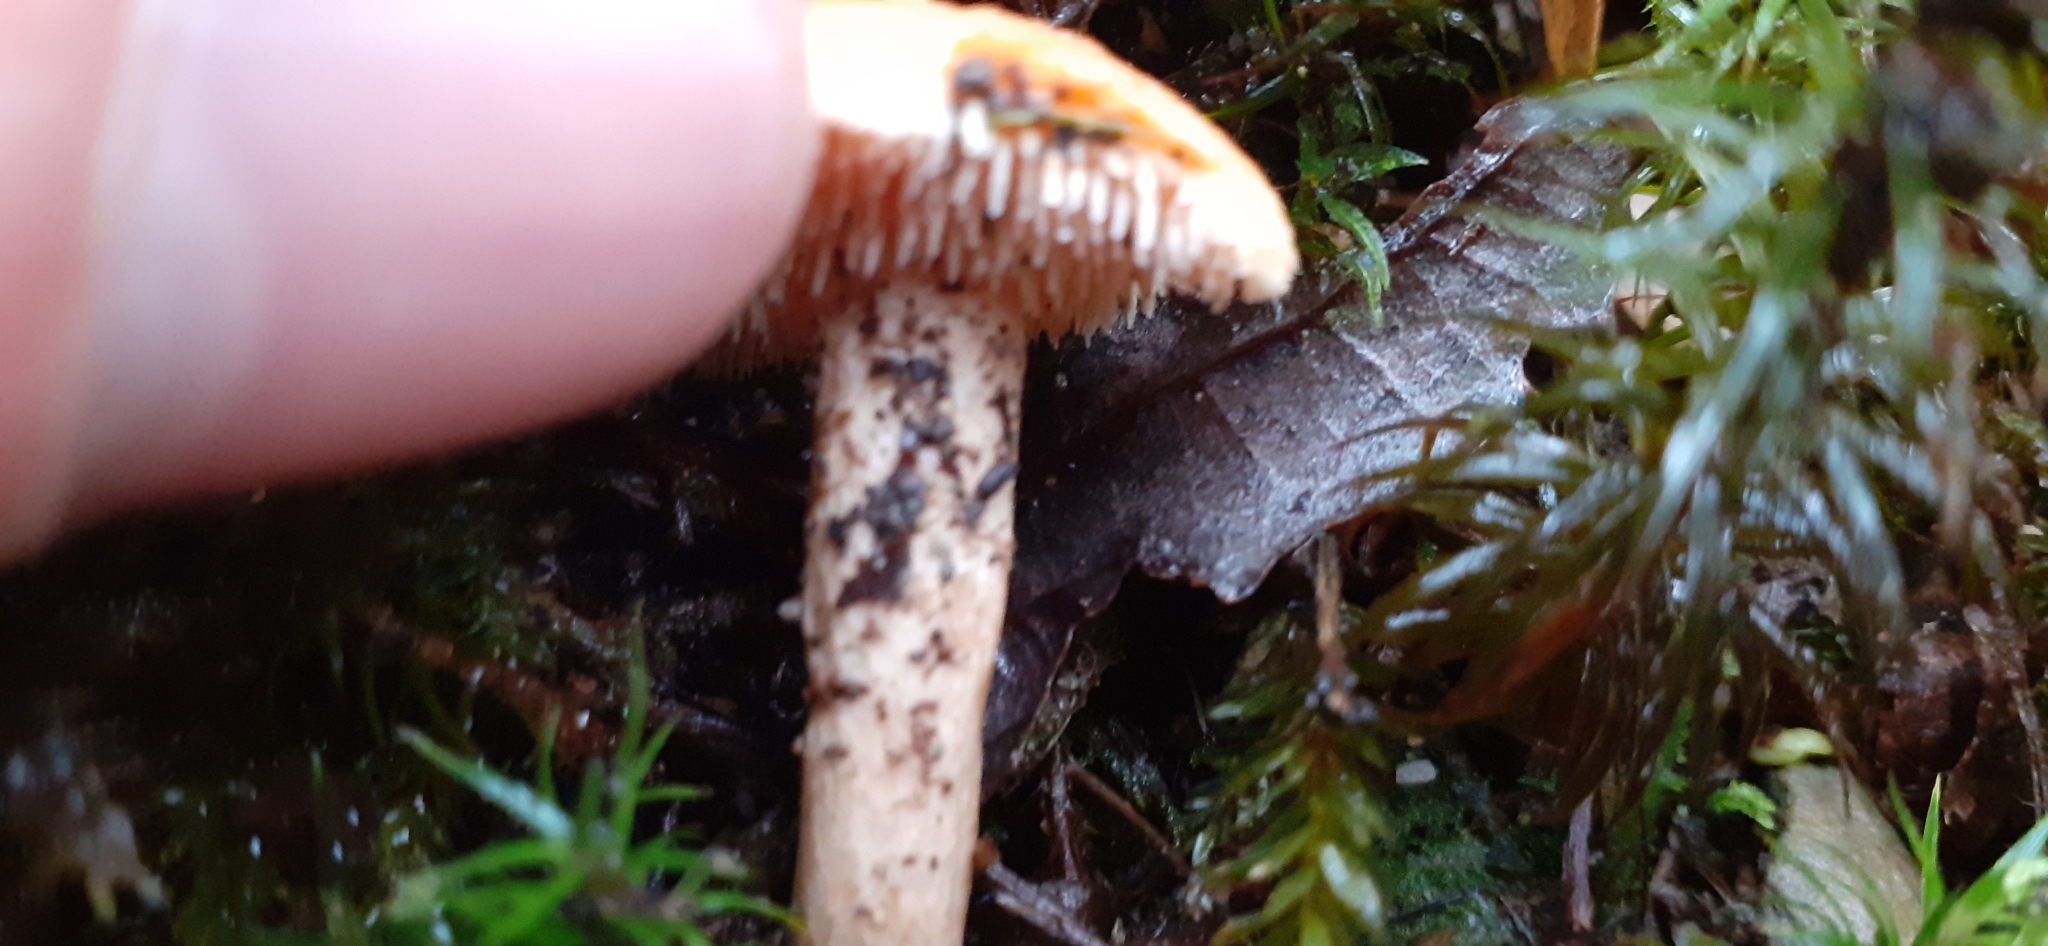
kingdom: Fungi
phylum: Basidiomycota
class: Agaricomycetes
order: Cantharellales
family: Hydnaceae
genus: Hydnum
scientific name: Hydnum rufescens
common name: Terracotta hedgehog
